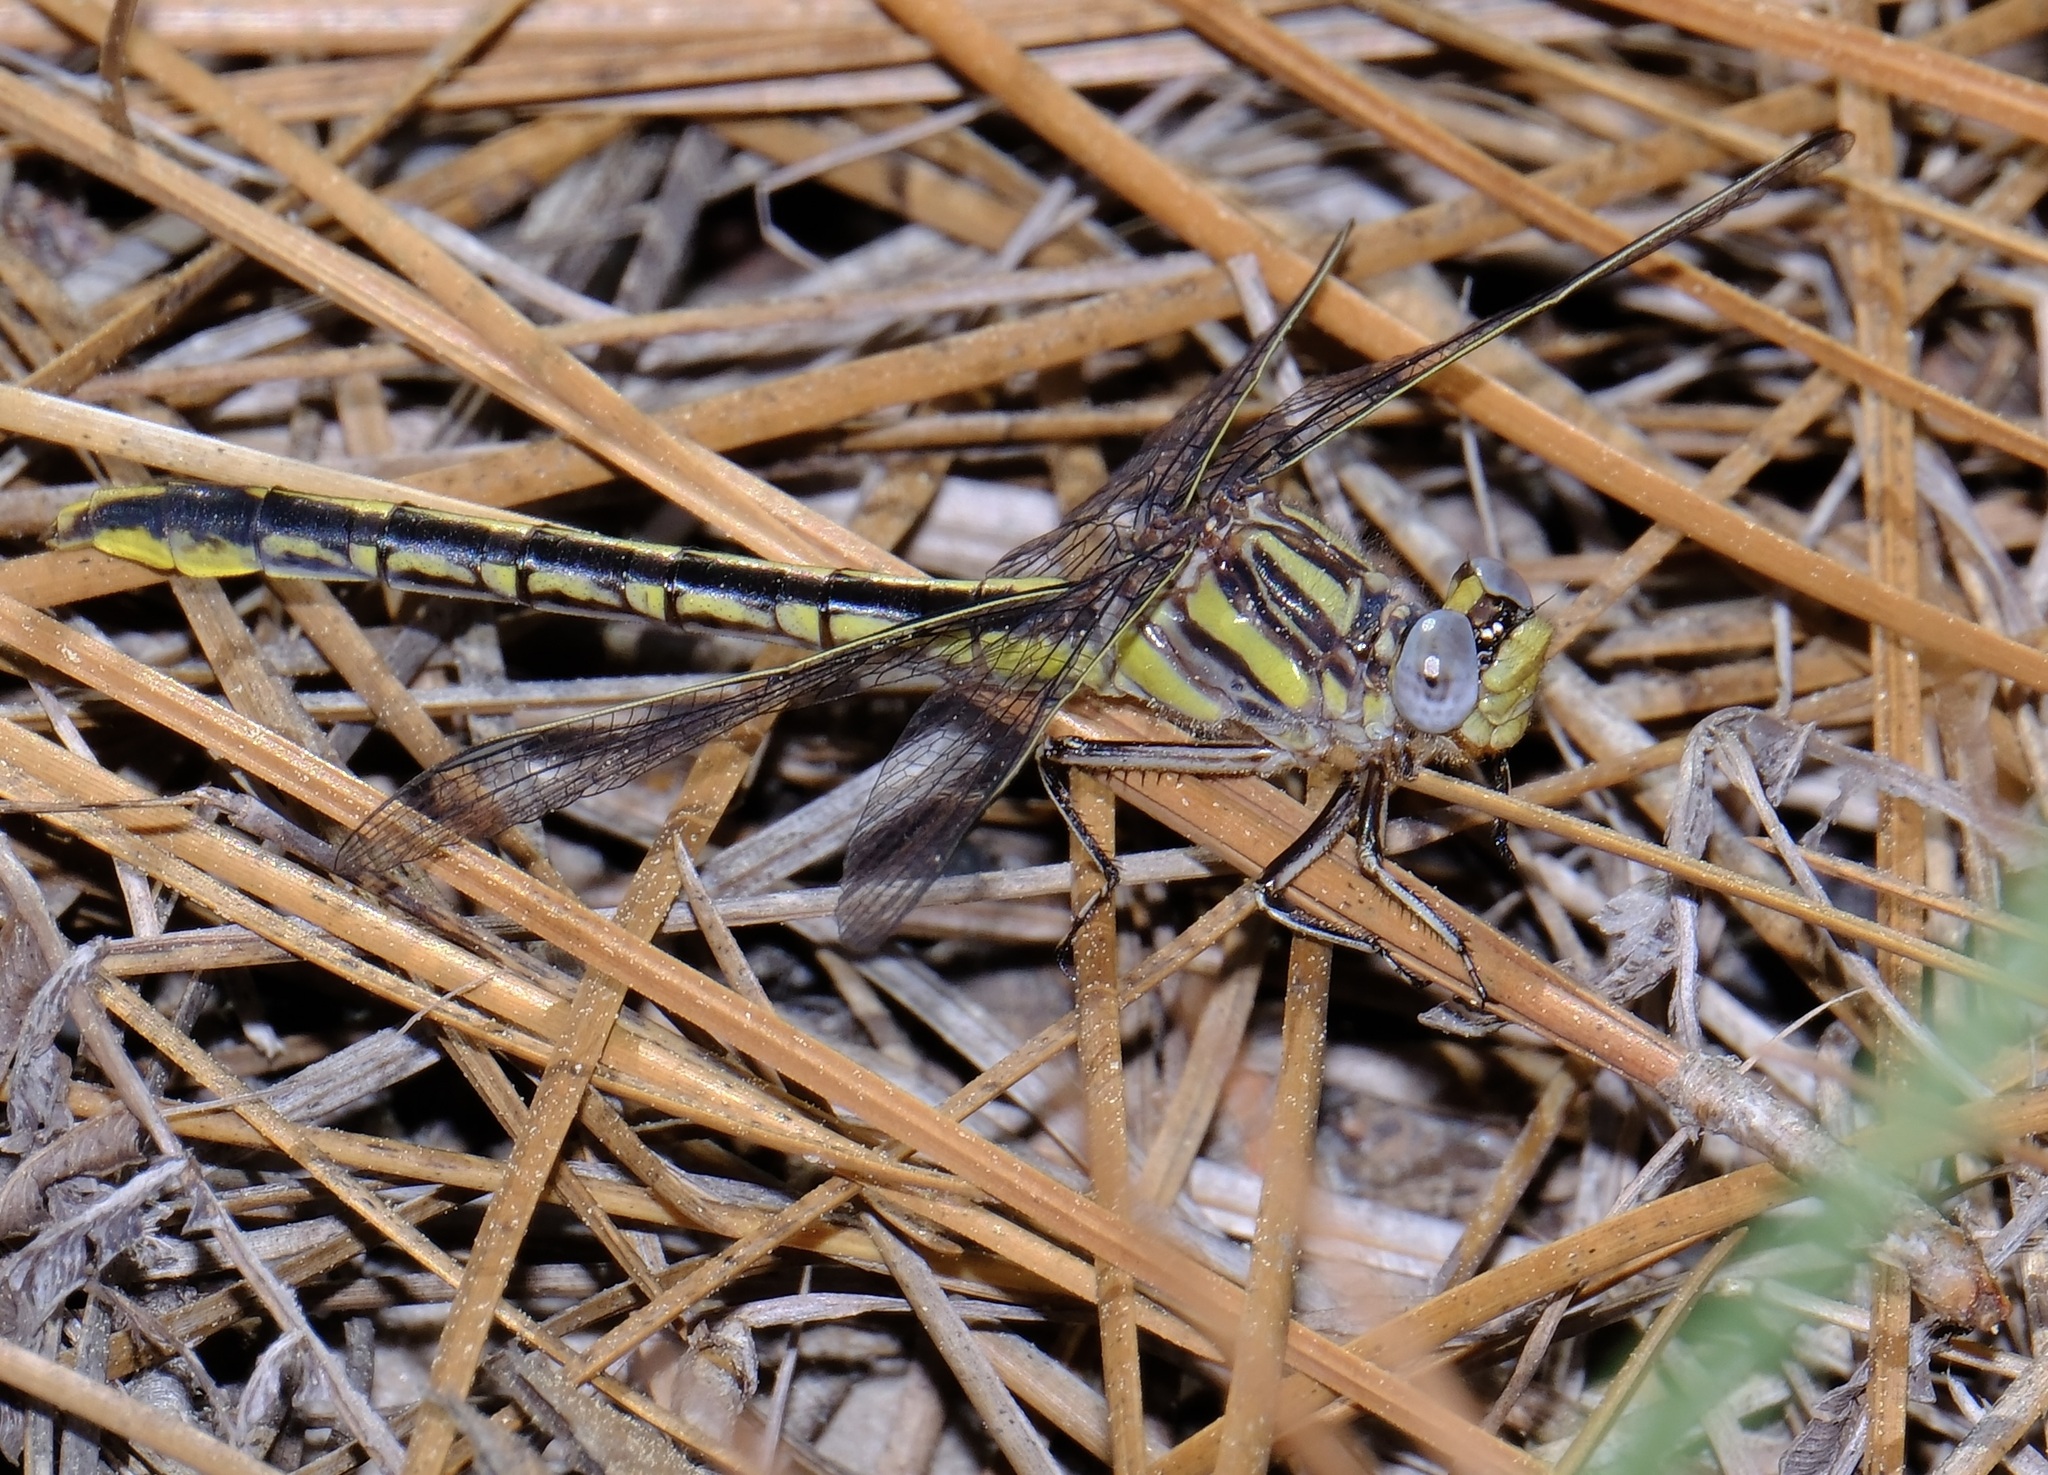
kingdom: Animalia
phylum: Arthropoda
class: Insecta
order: Odonata
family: Gomphidae
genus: Phanogomphus
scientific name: Phanogomphus oklahomensis
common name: Oklahoma clubtail
